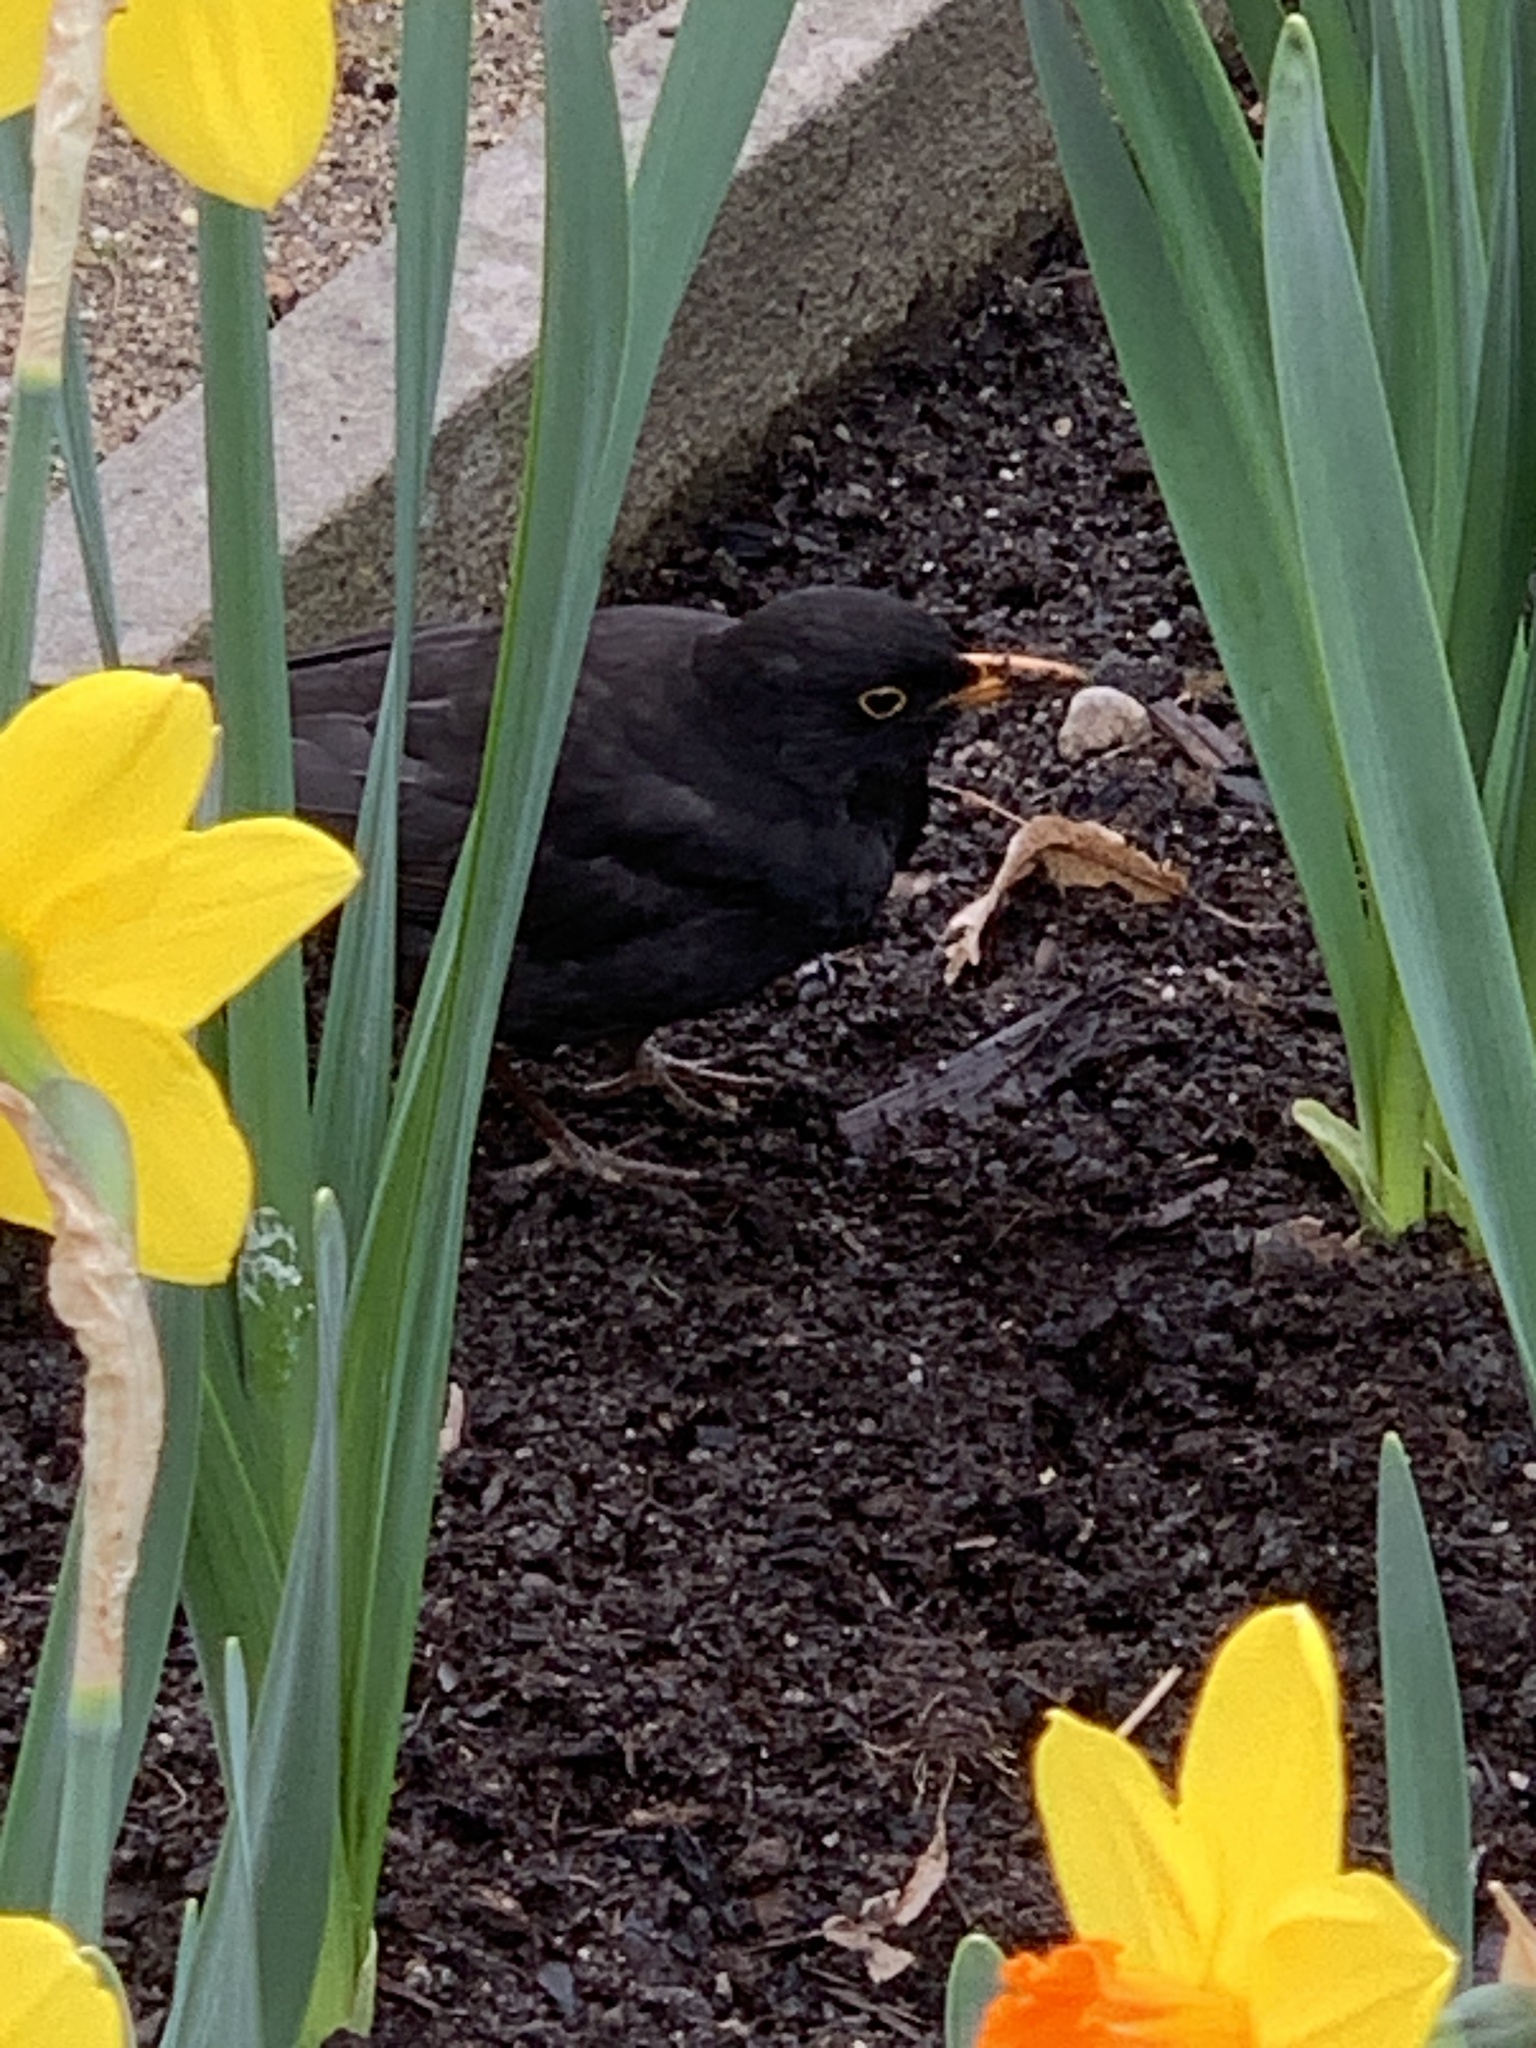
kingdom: Animalia
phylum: Chordata
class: Aves
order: Passeriformes
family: Turdidae
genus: Turdus
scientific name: Turdus merula
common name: Common blackbird
